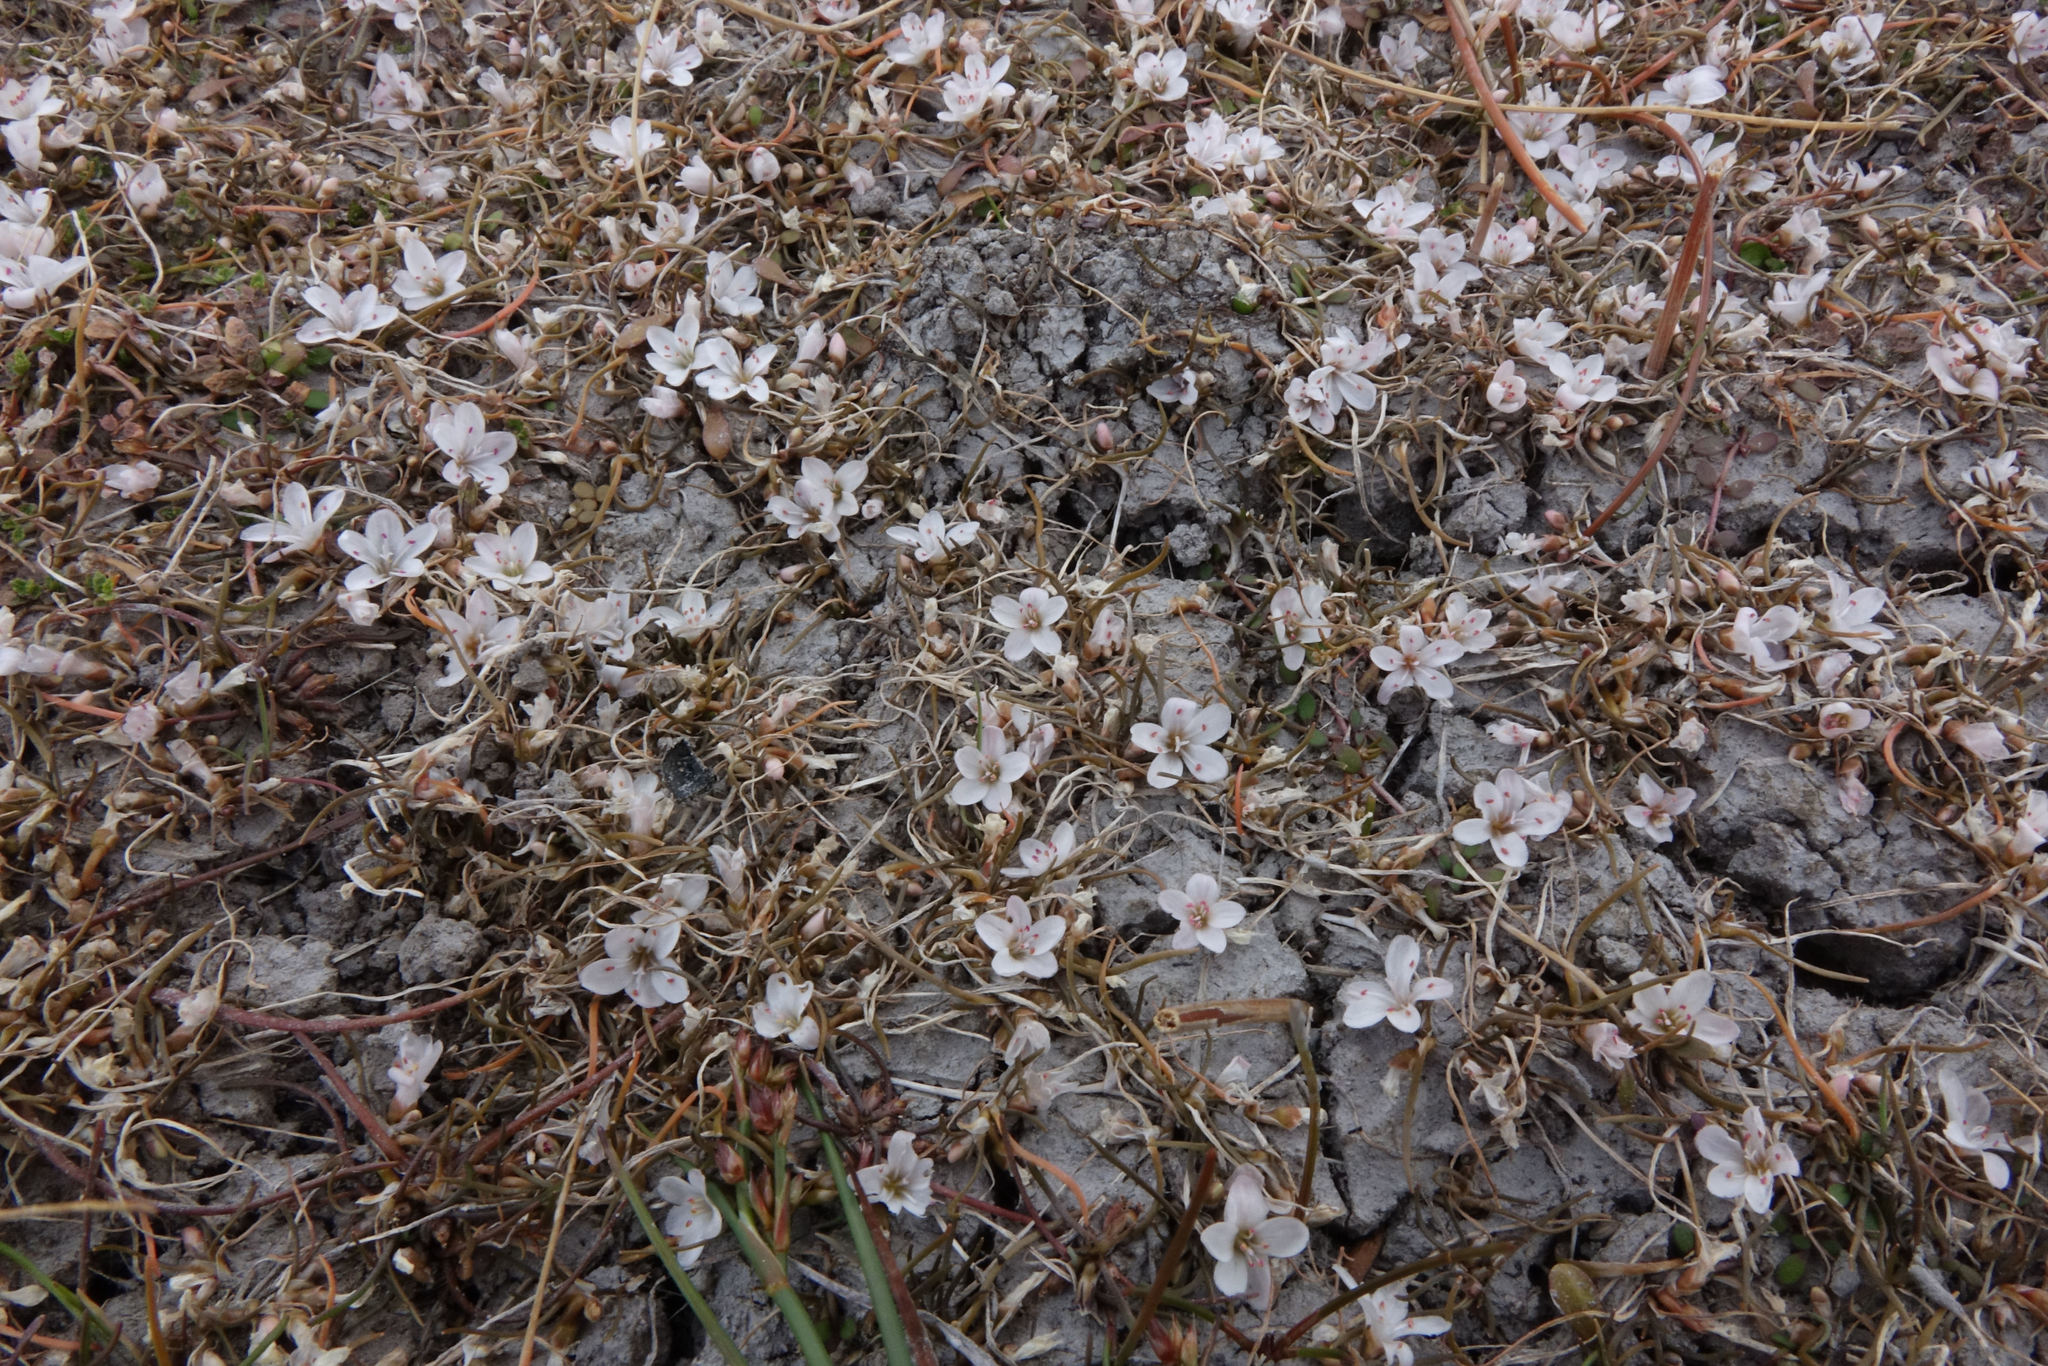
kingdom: Plantae
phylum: Tracheophyta
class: Magnoliopsida
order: Caryophyllales
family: Montiaceae
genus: Montia
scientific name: Montia angustifolia
